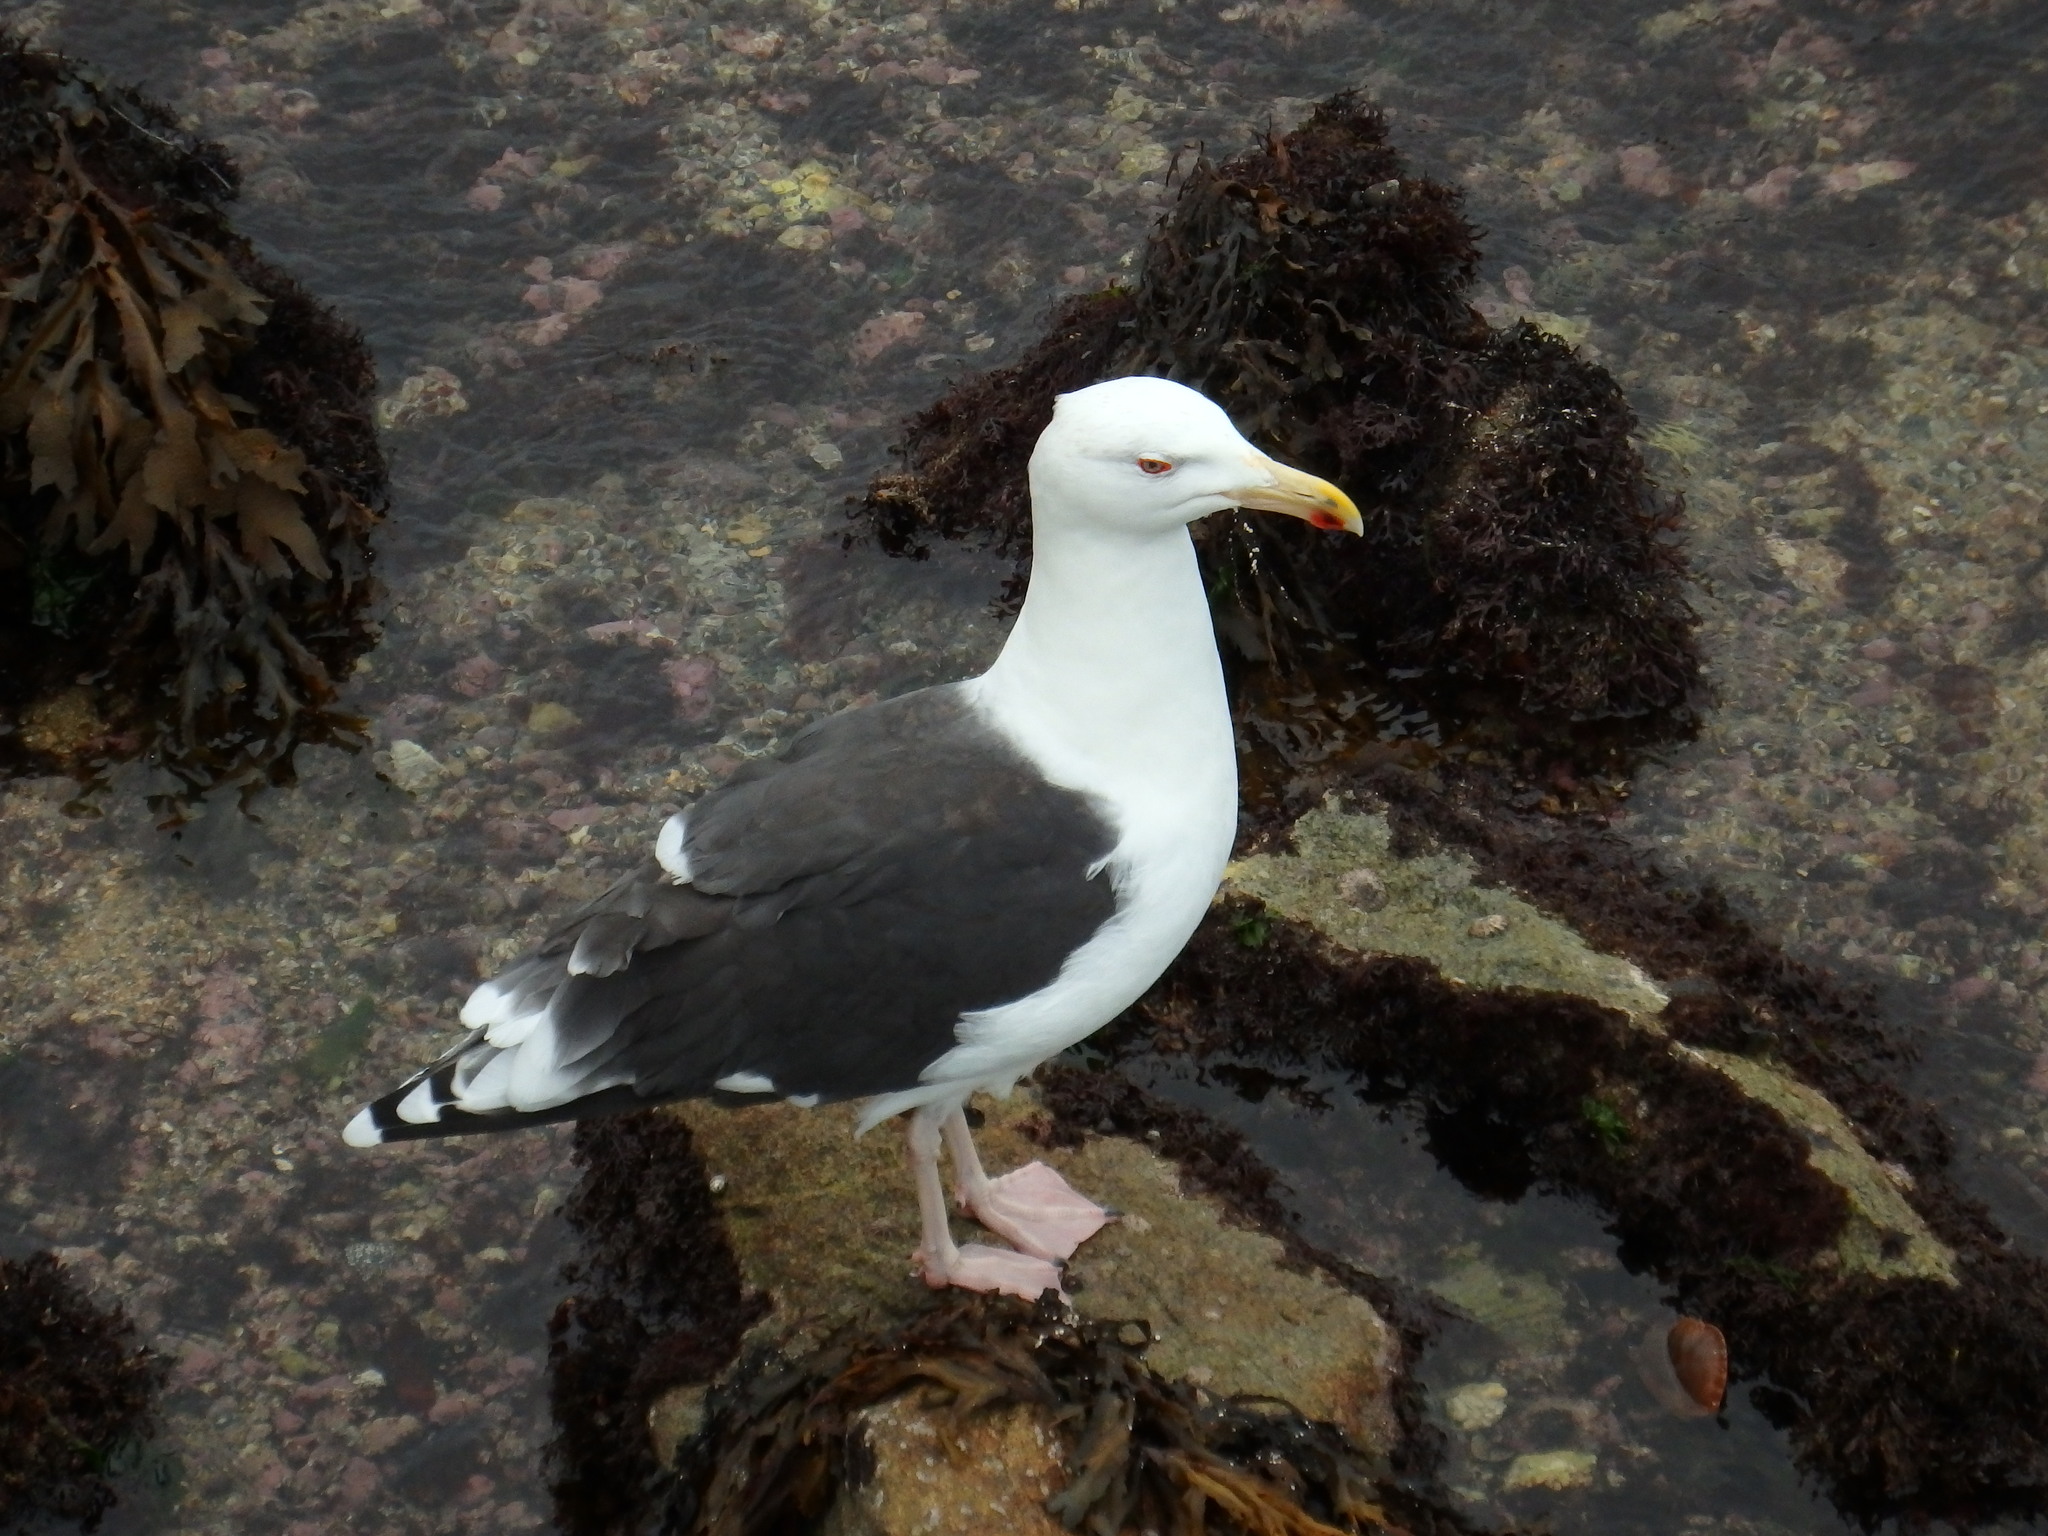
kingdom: Animalia
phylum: Chordata
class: Aves
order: Charadriiformes
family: Laridae
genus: Larus
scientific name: Larus marinus
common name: Great black-backed gull
